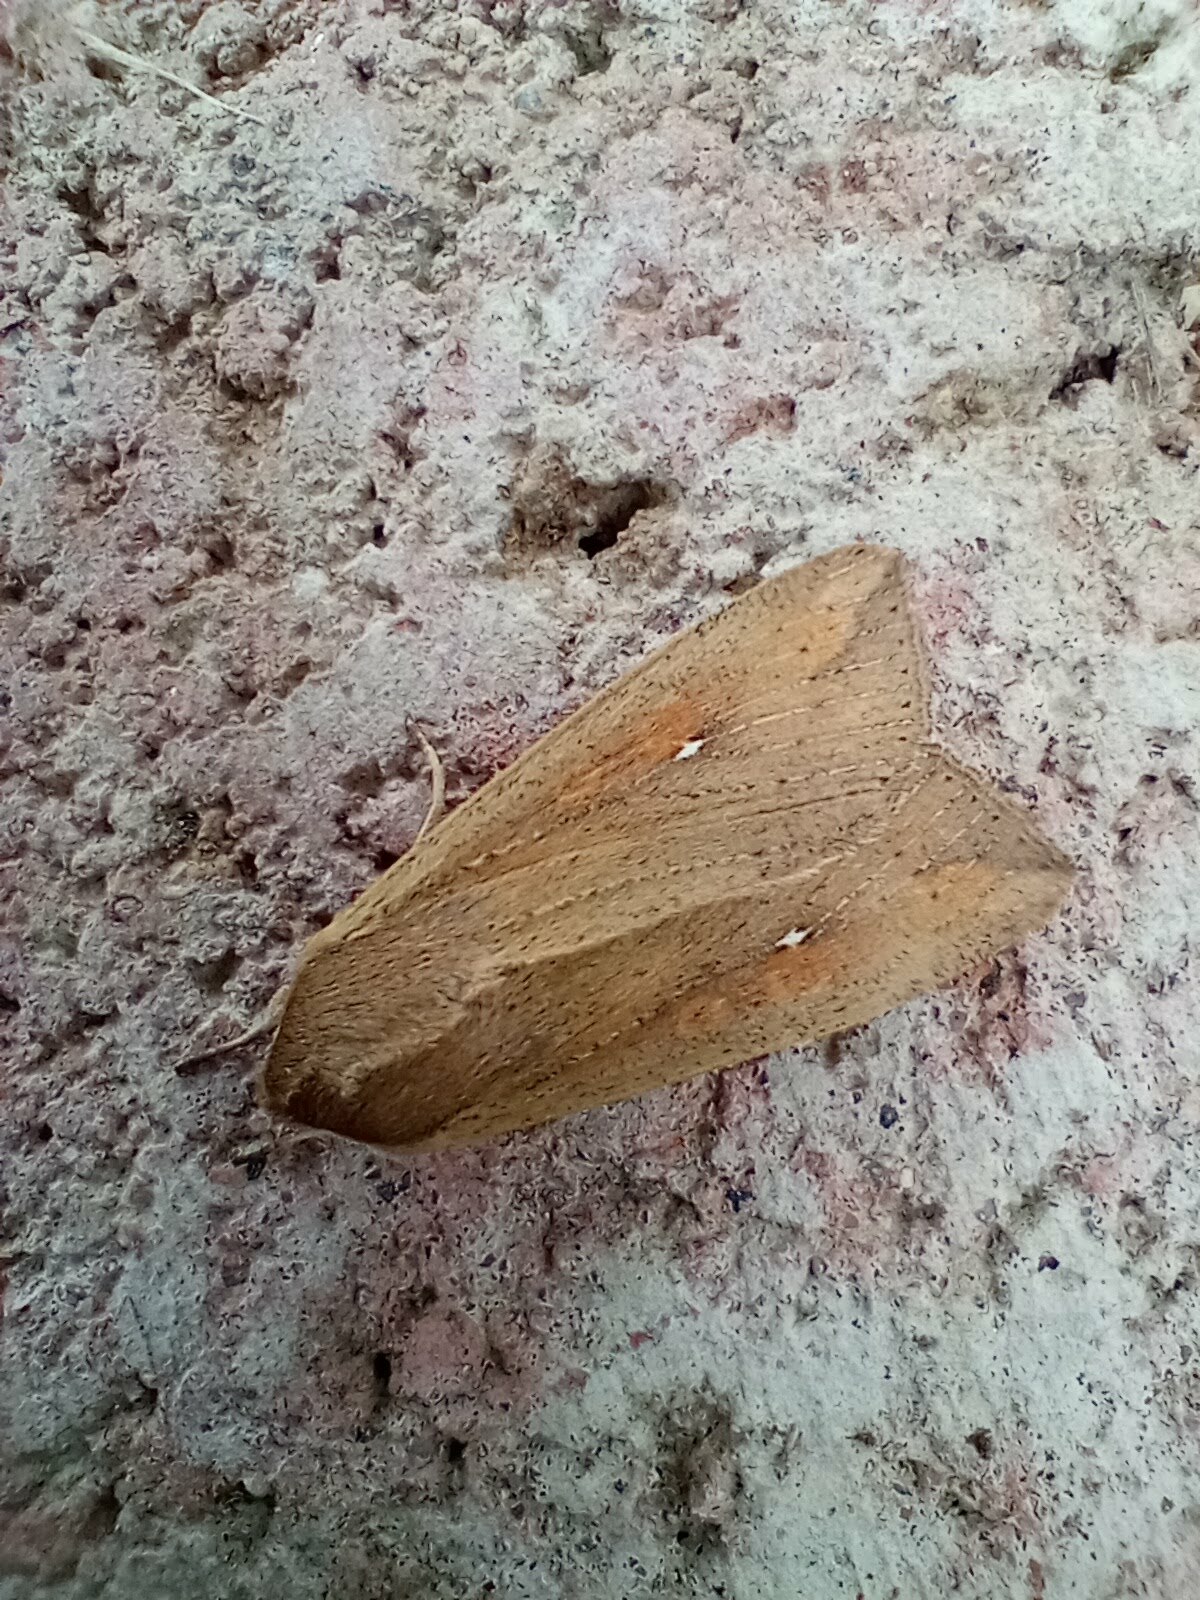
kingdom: Animalia
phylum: Arthropoda
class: Insecta
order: Lepidoptera
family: Noctuidae
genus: Mythimna
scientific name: Mythimna unipuncta
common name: White-speck
